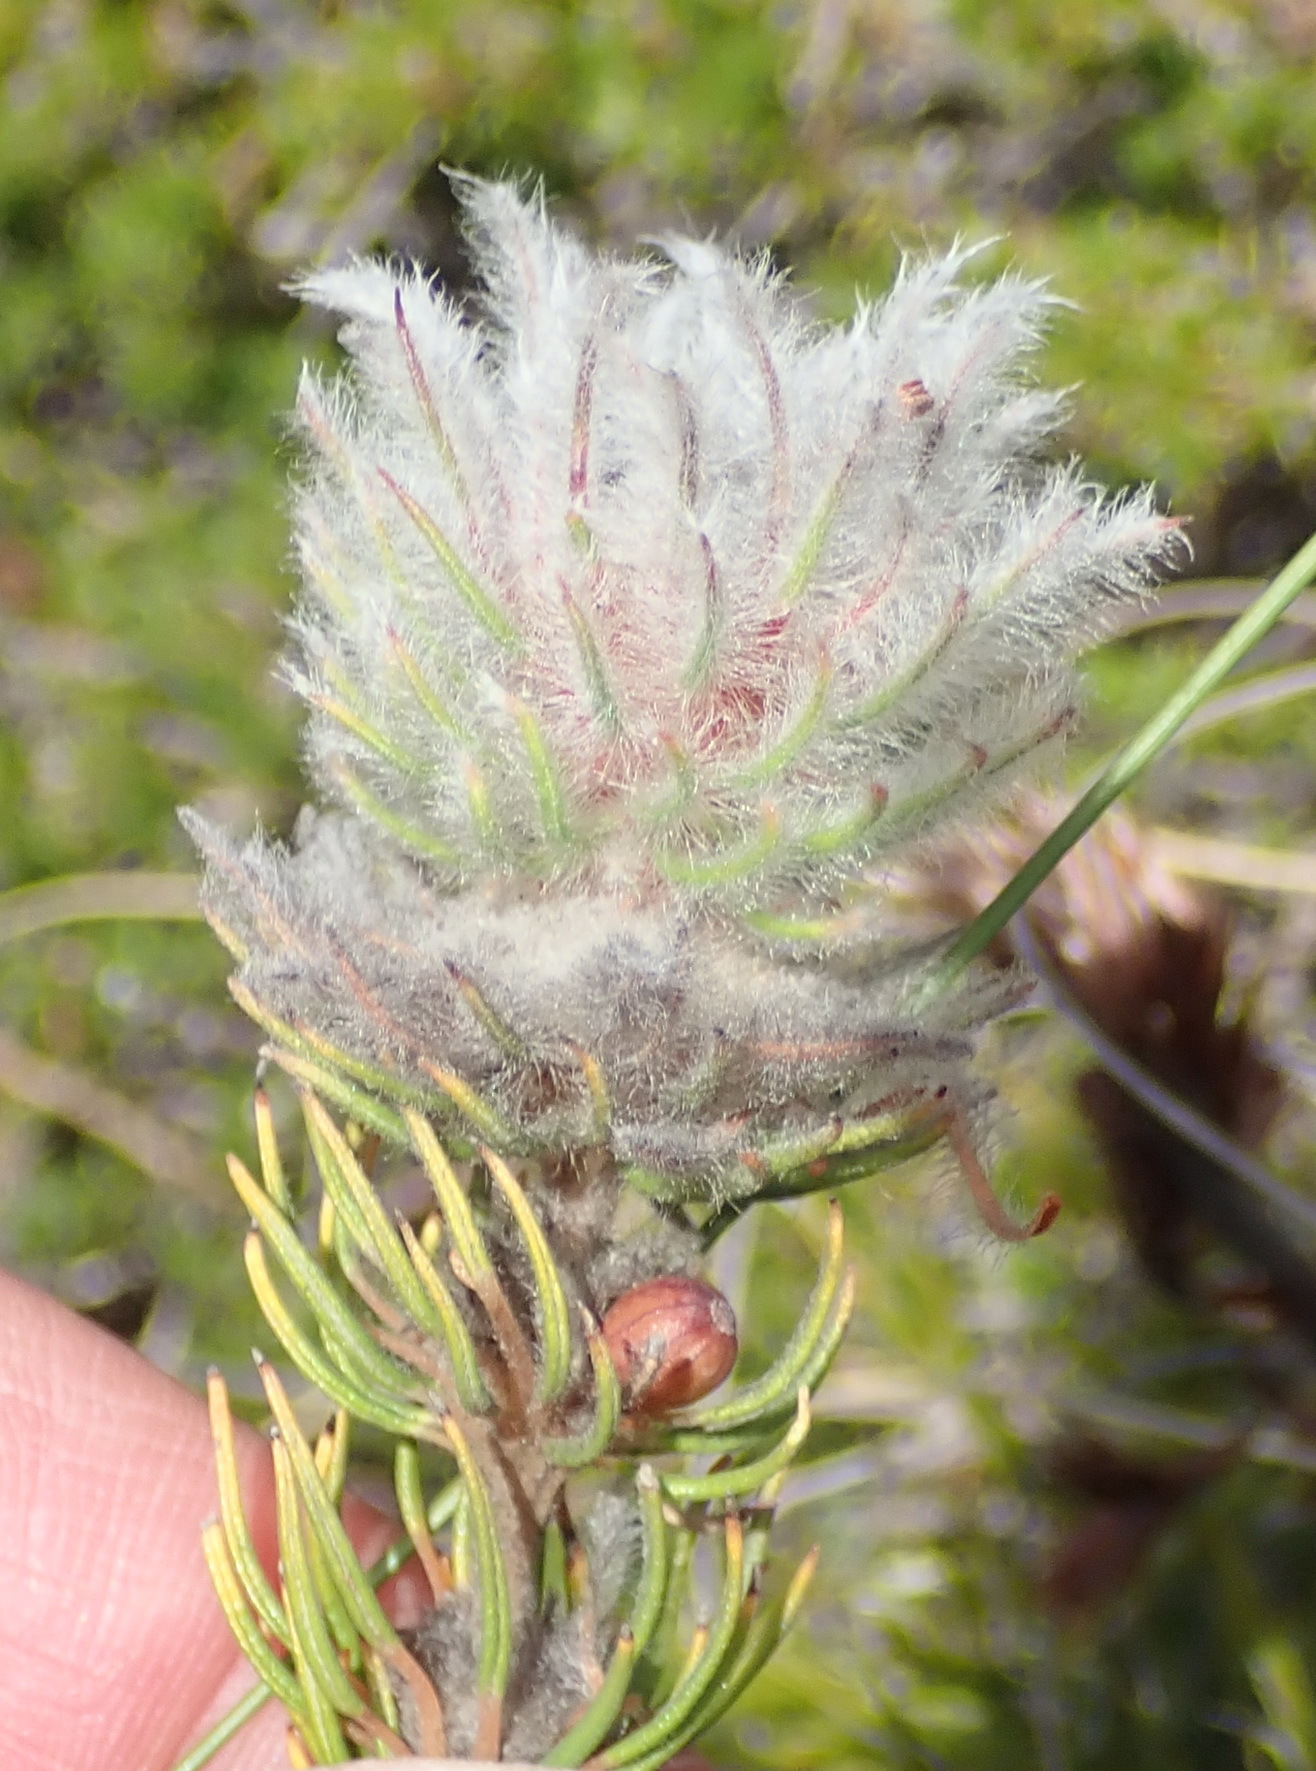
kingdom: Plantae
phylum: Tracheophyta
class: Magnoliopsida
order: Rosales
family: Rhamnaceae
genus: Phylica
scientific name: Phylica meyeri
